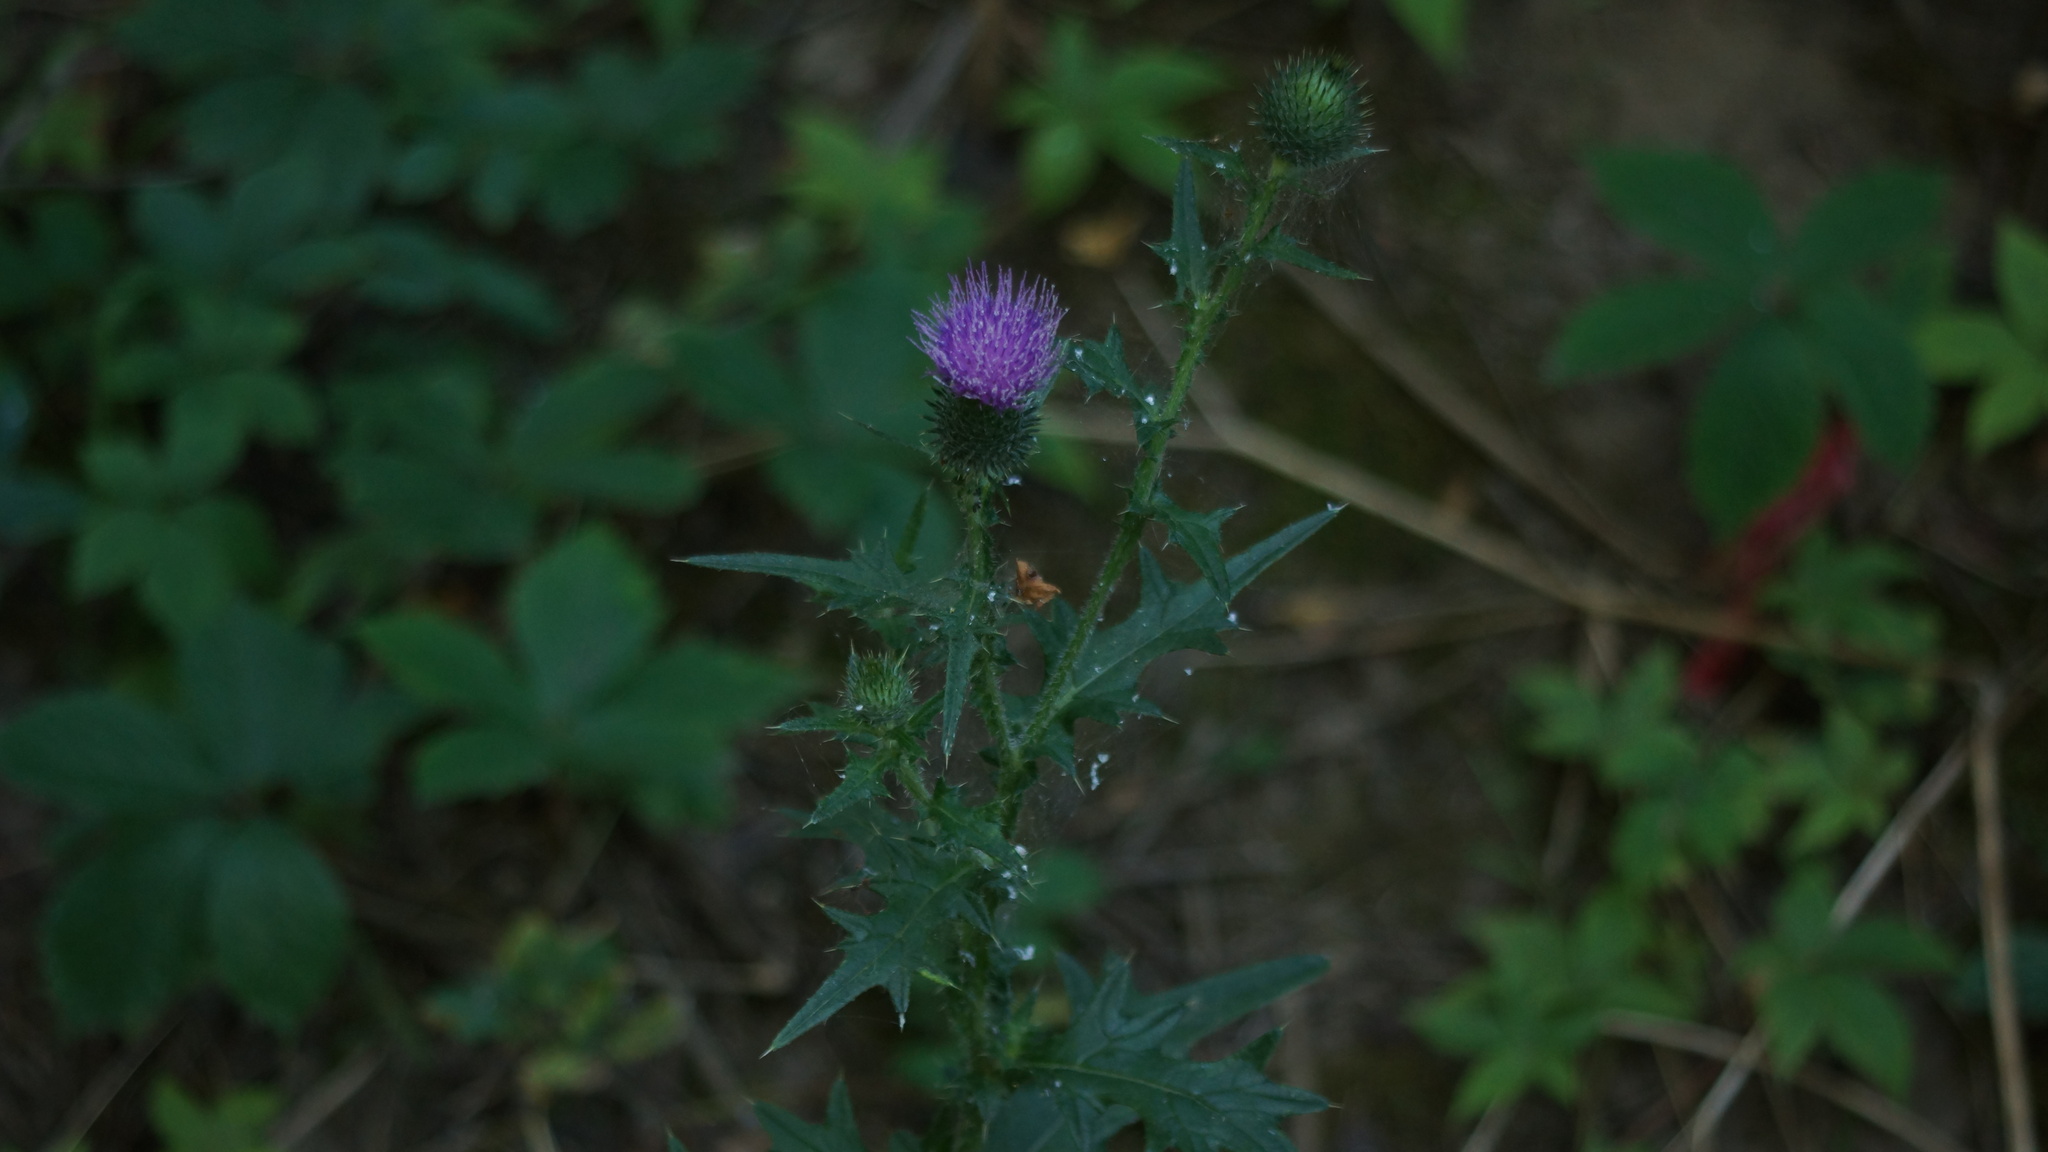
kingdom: Plantae
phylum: Tracheophyta
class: Magnoliopsida
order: Asterales
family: Asteraceae
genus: Cirsium
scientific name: Cirsium vulgare
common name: Bull thistle
